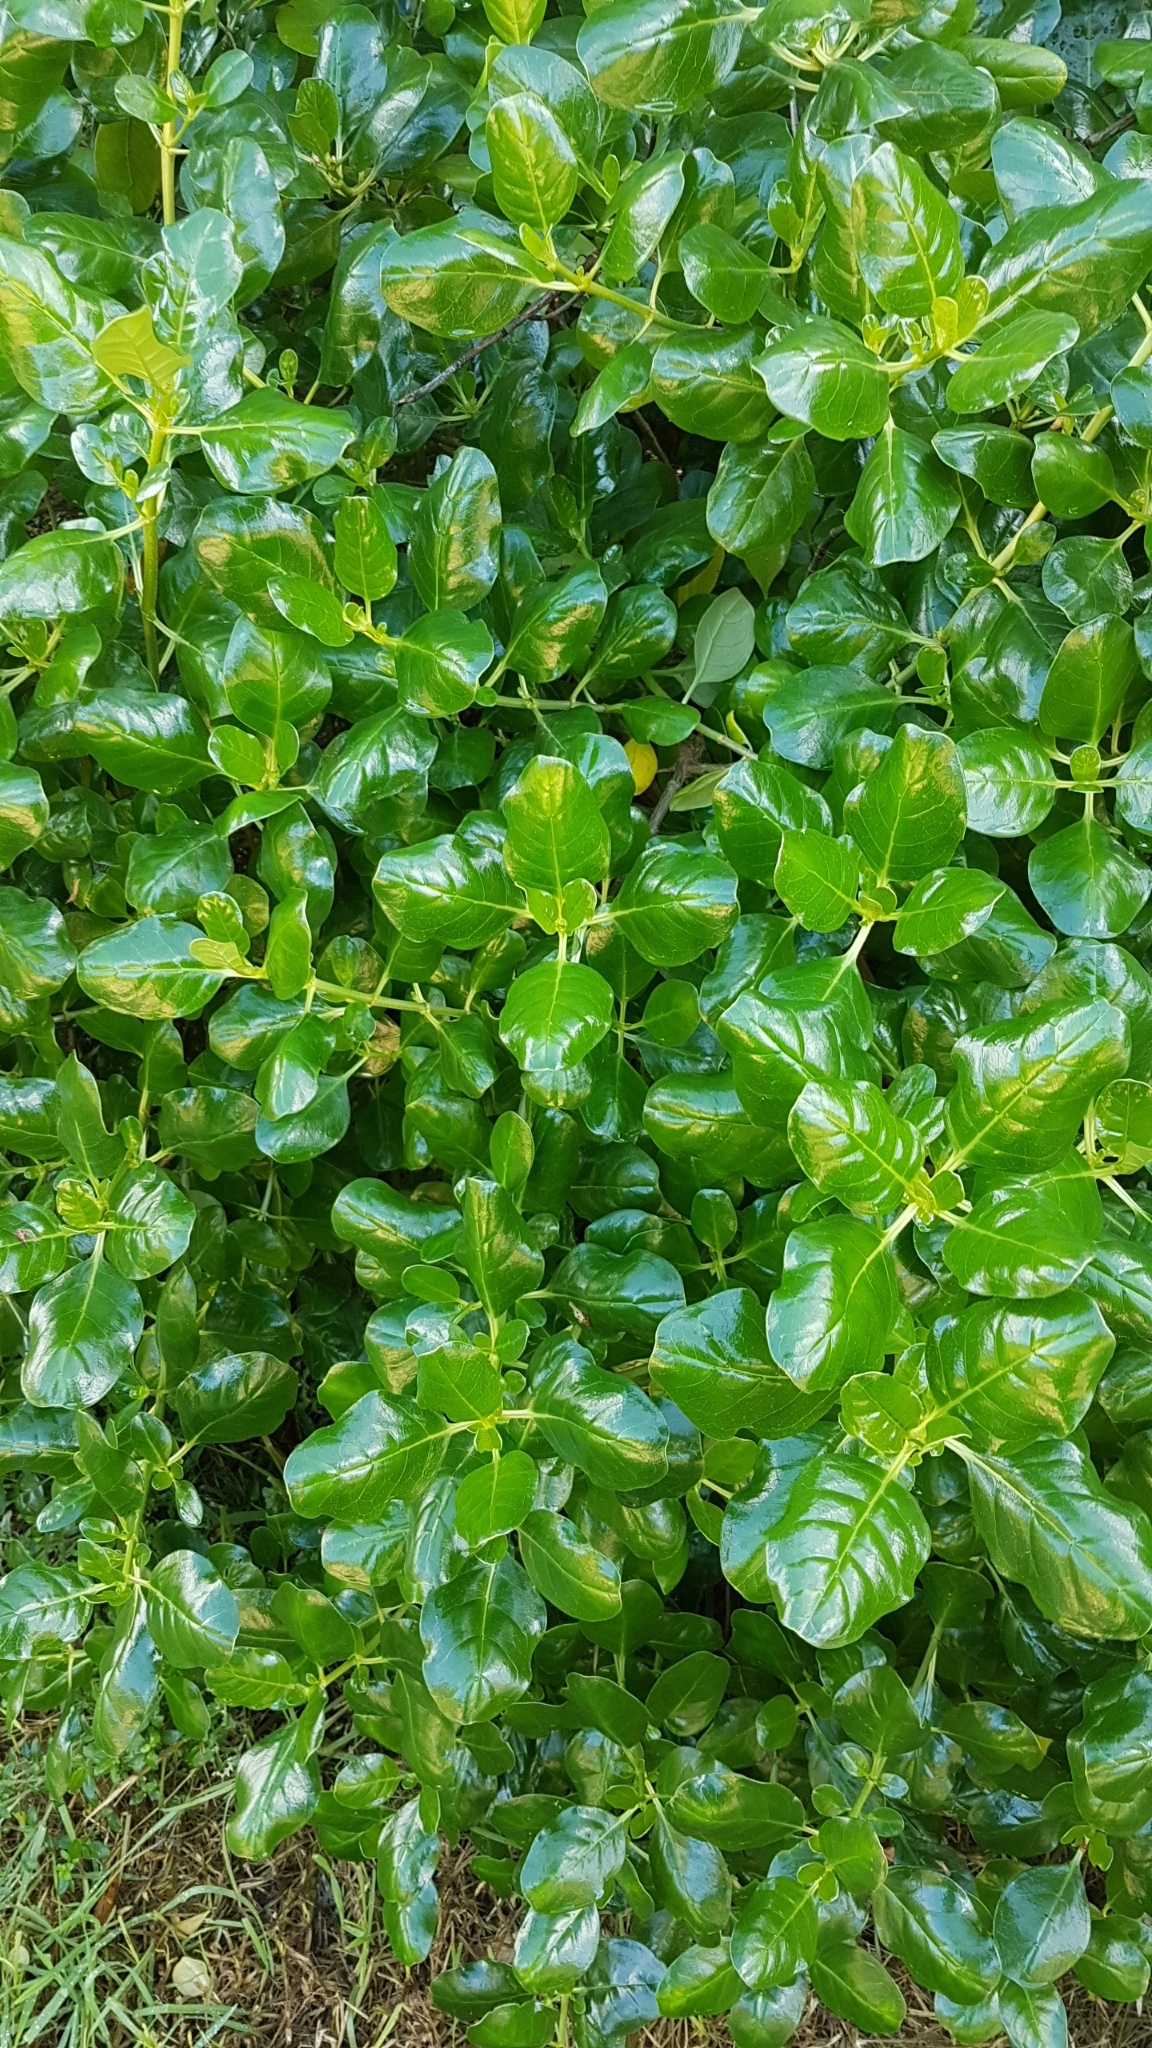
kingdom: Plantae
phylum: Tracheophyta
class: Magnoliopsida
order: Gentianales
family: Rubiaceae
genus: Coprosma
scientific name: Coprosma repens
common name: Tree bedstraw
